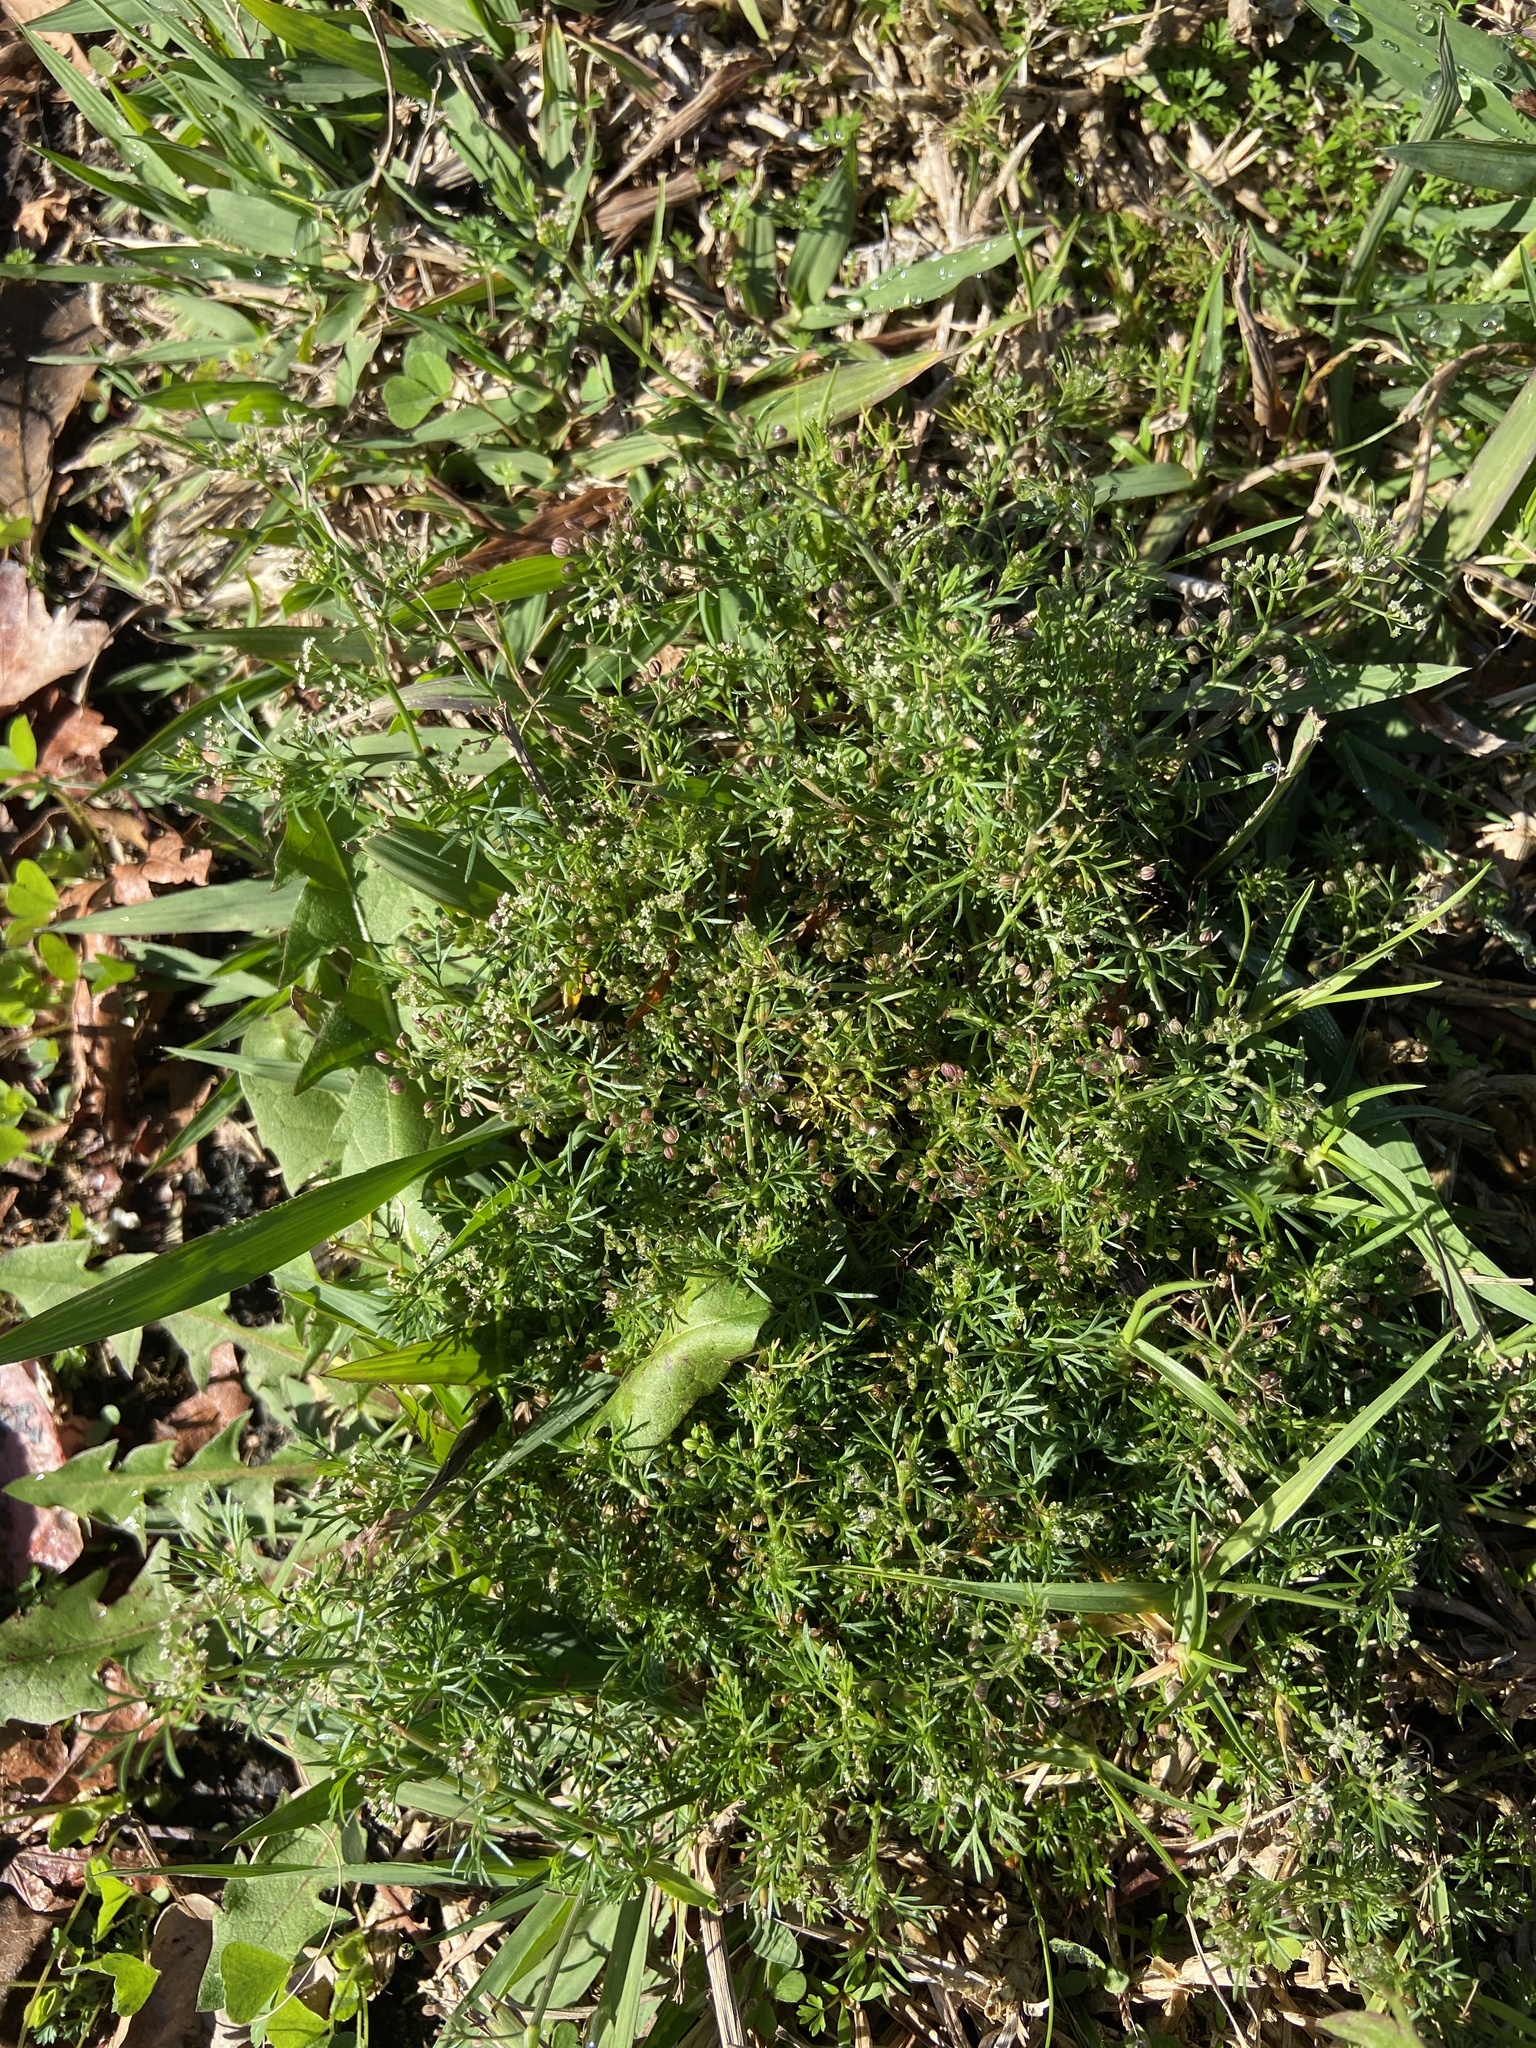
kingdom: Plantae
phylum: Tracheophyta
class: Magnoliopsida
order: Apiales
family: Apiaceae
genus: Cyclospermum
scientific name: Cyclospermum leptophyllum
